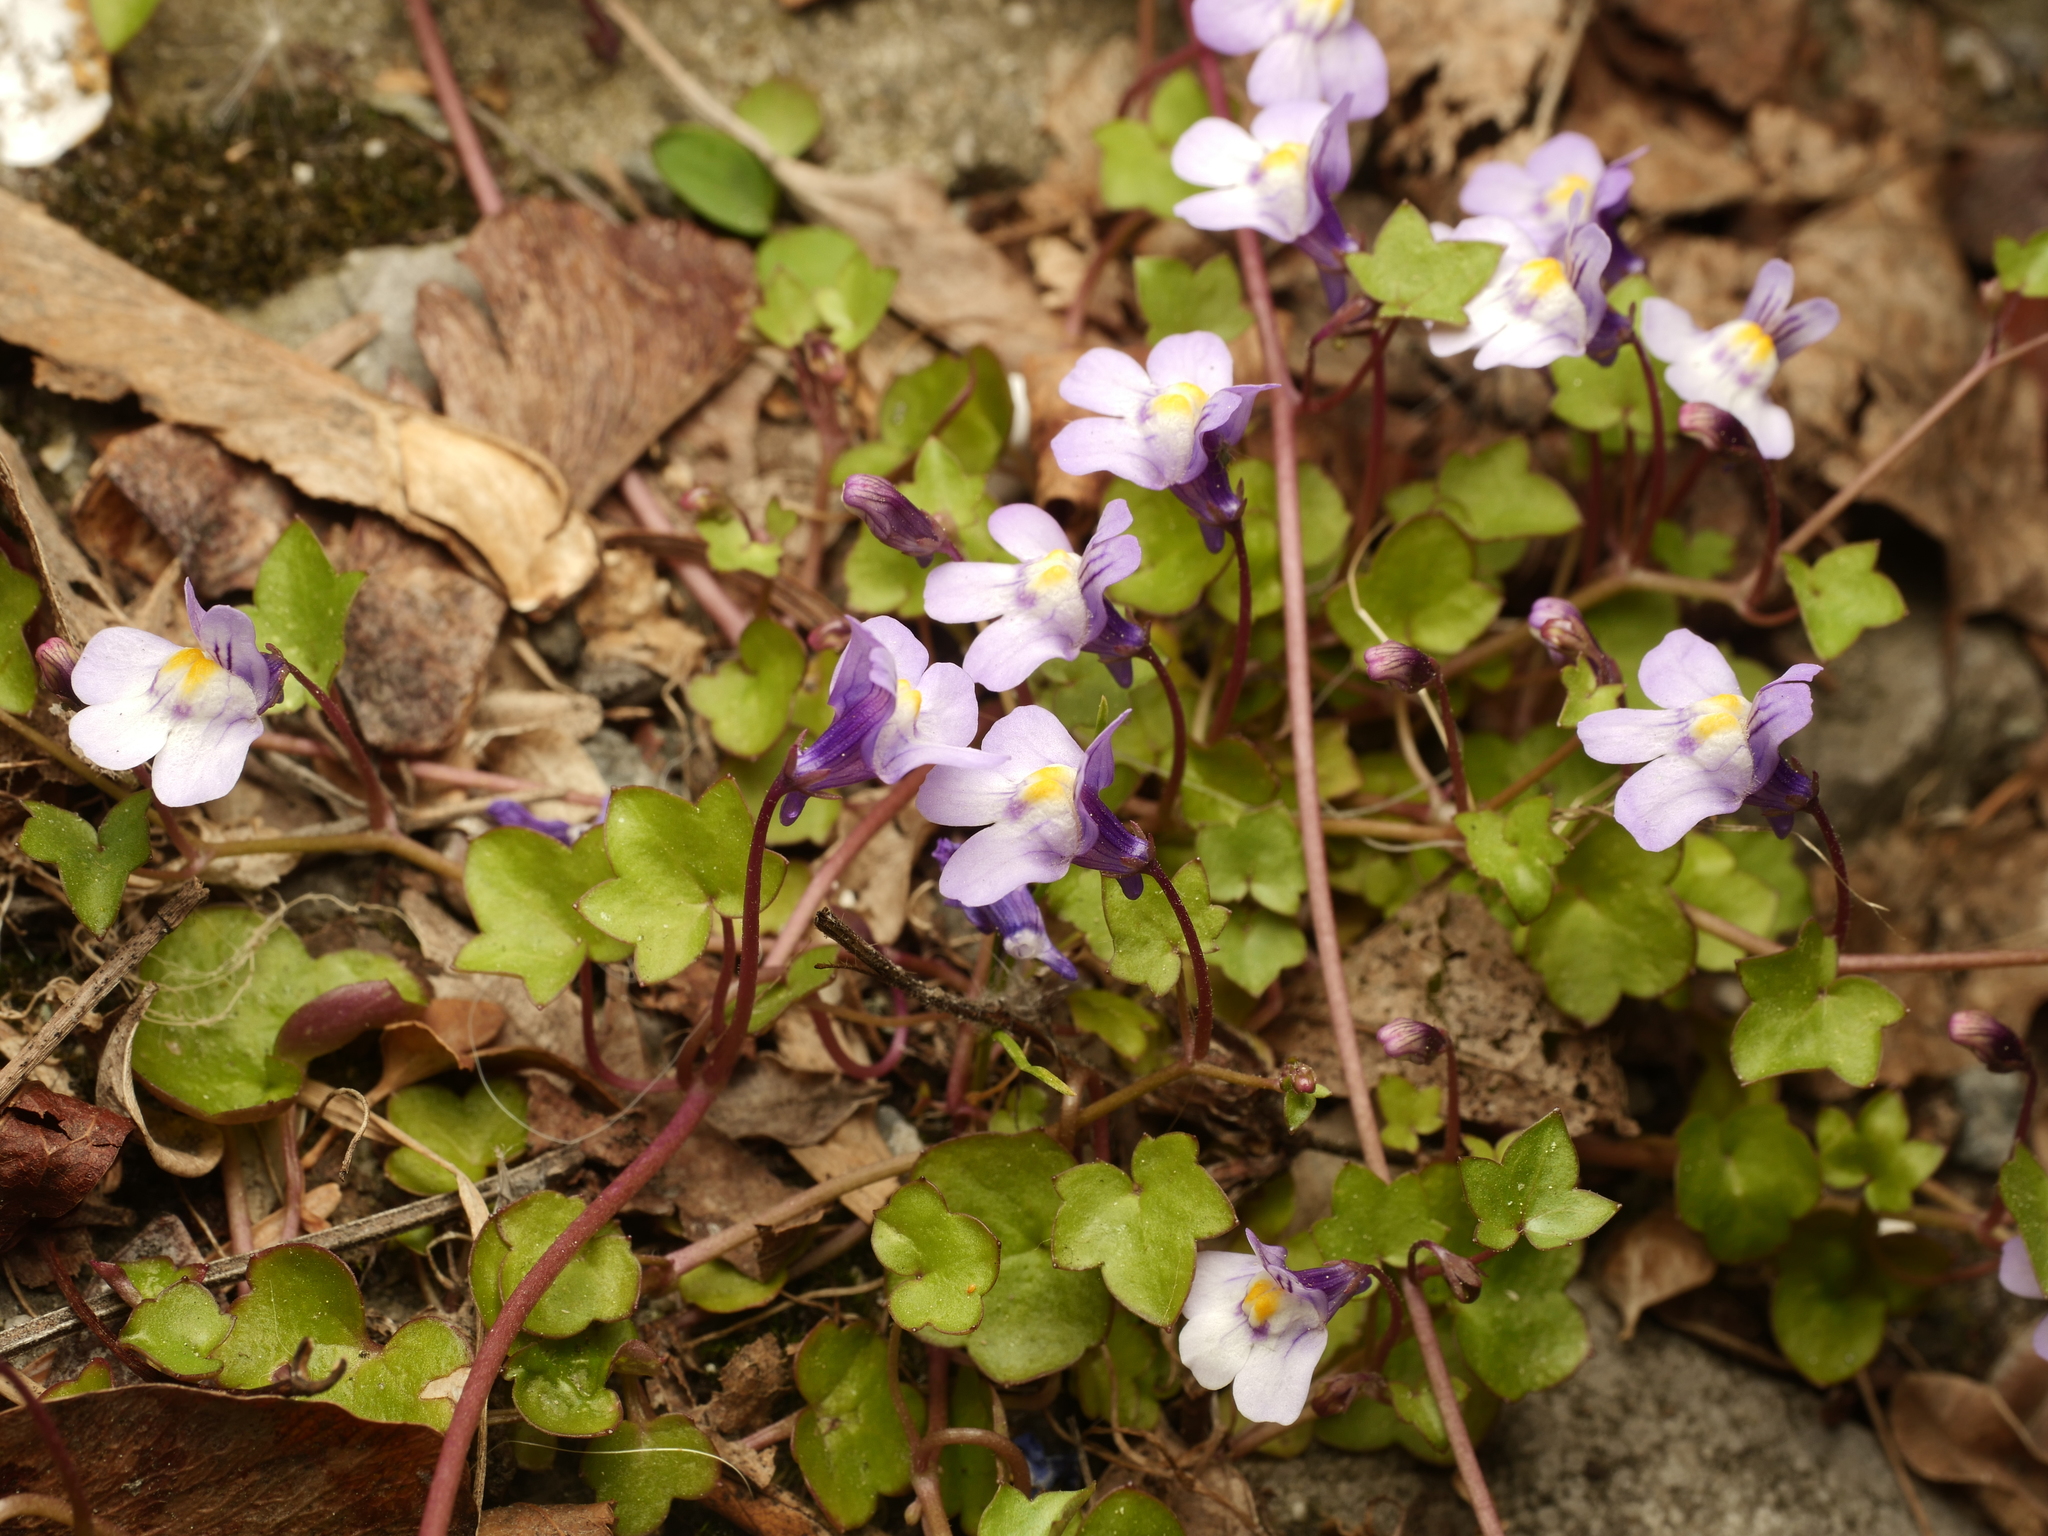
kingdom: Plantae
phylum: Tracheophyta
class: Magnoliopsida
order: Lamiales
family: Plantaginaceae
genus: Cymbalaria
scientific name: Cymbalaria muralis
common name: Ivy-leaved toadflax
